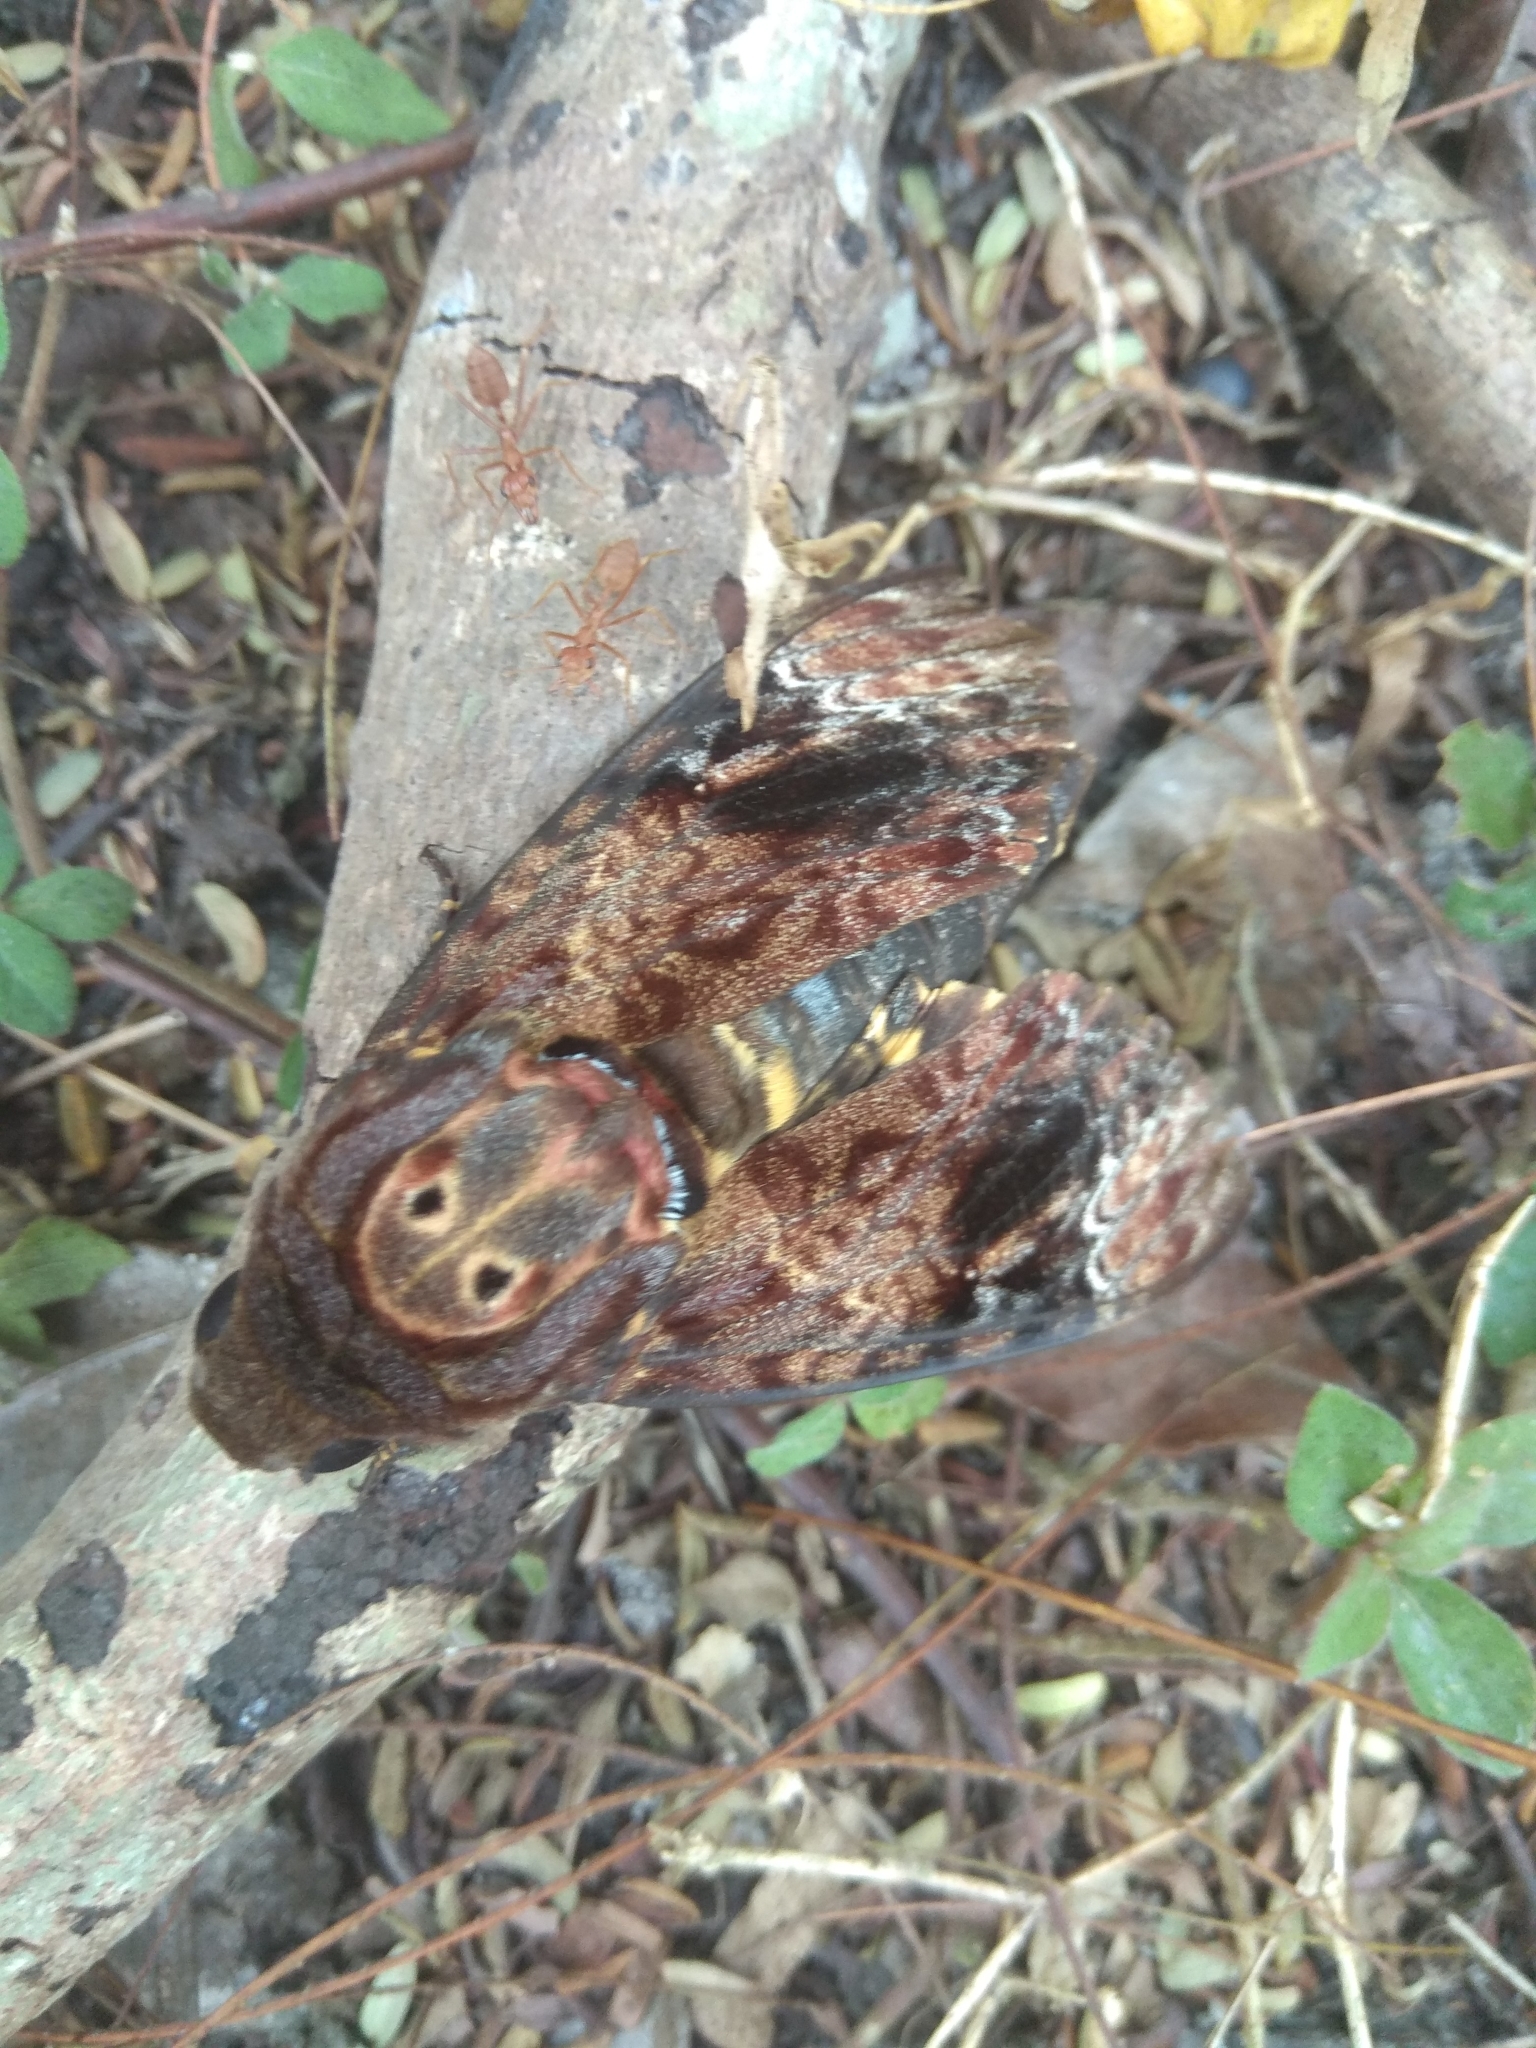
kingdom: Animalia
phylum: Arthropoda
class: Insecta
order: Lepidoptera
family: Sphingidae
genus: Acherontia
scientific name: Acherontia lachesis
